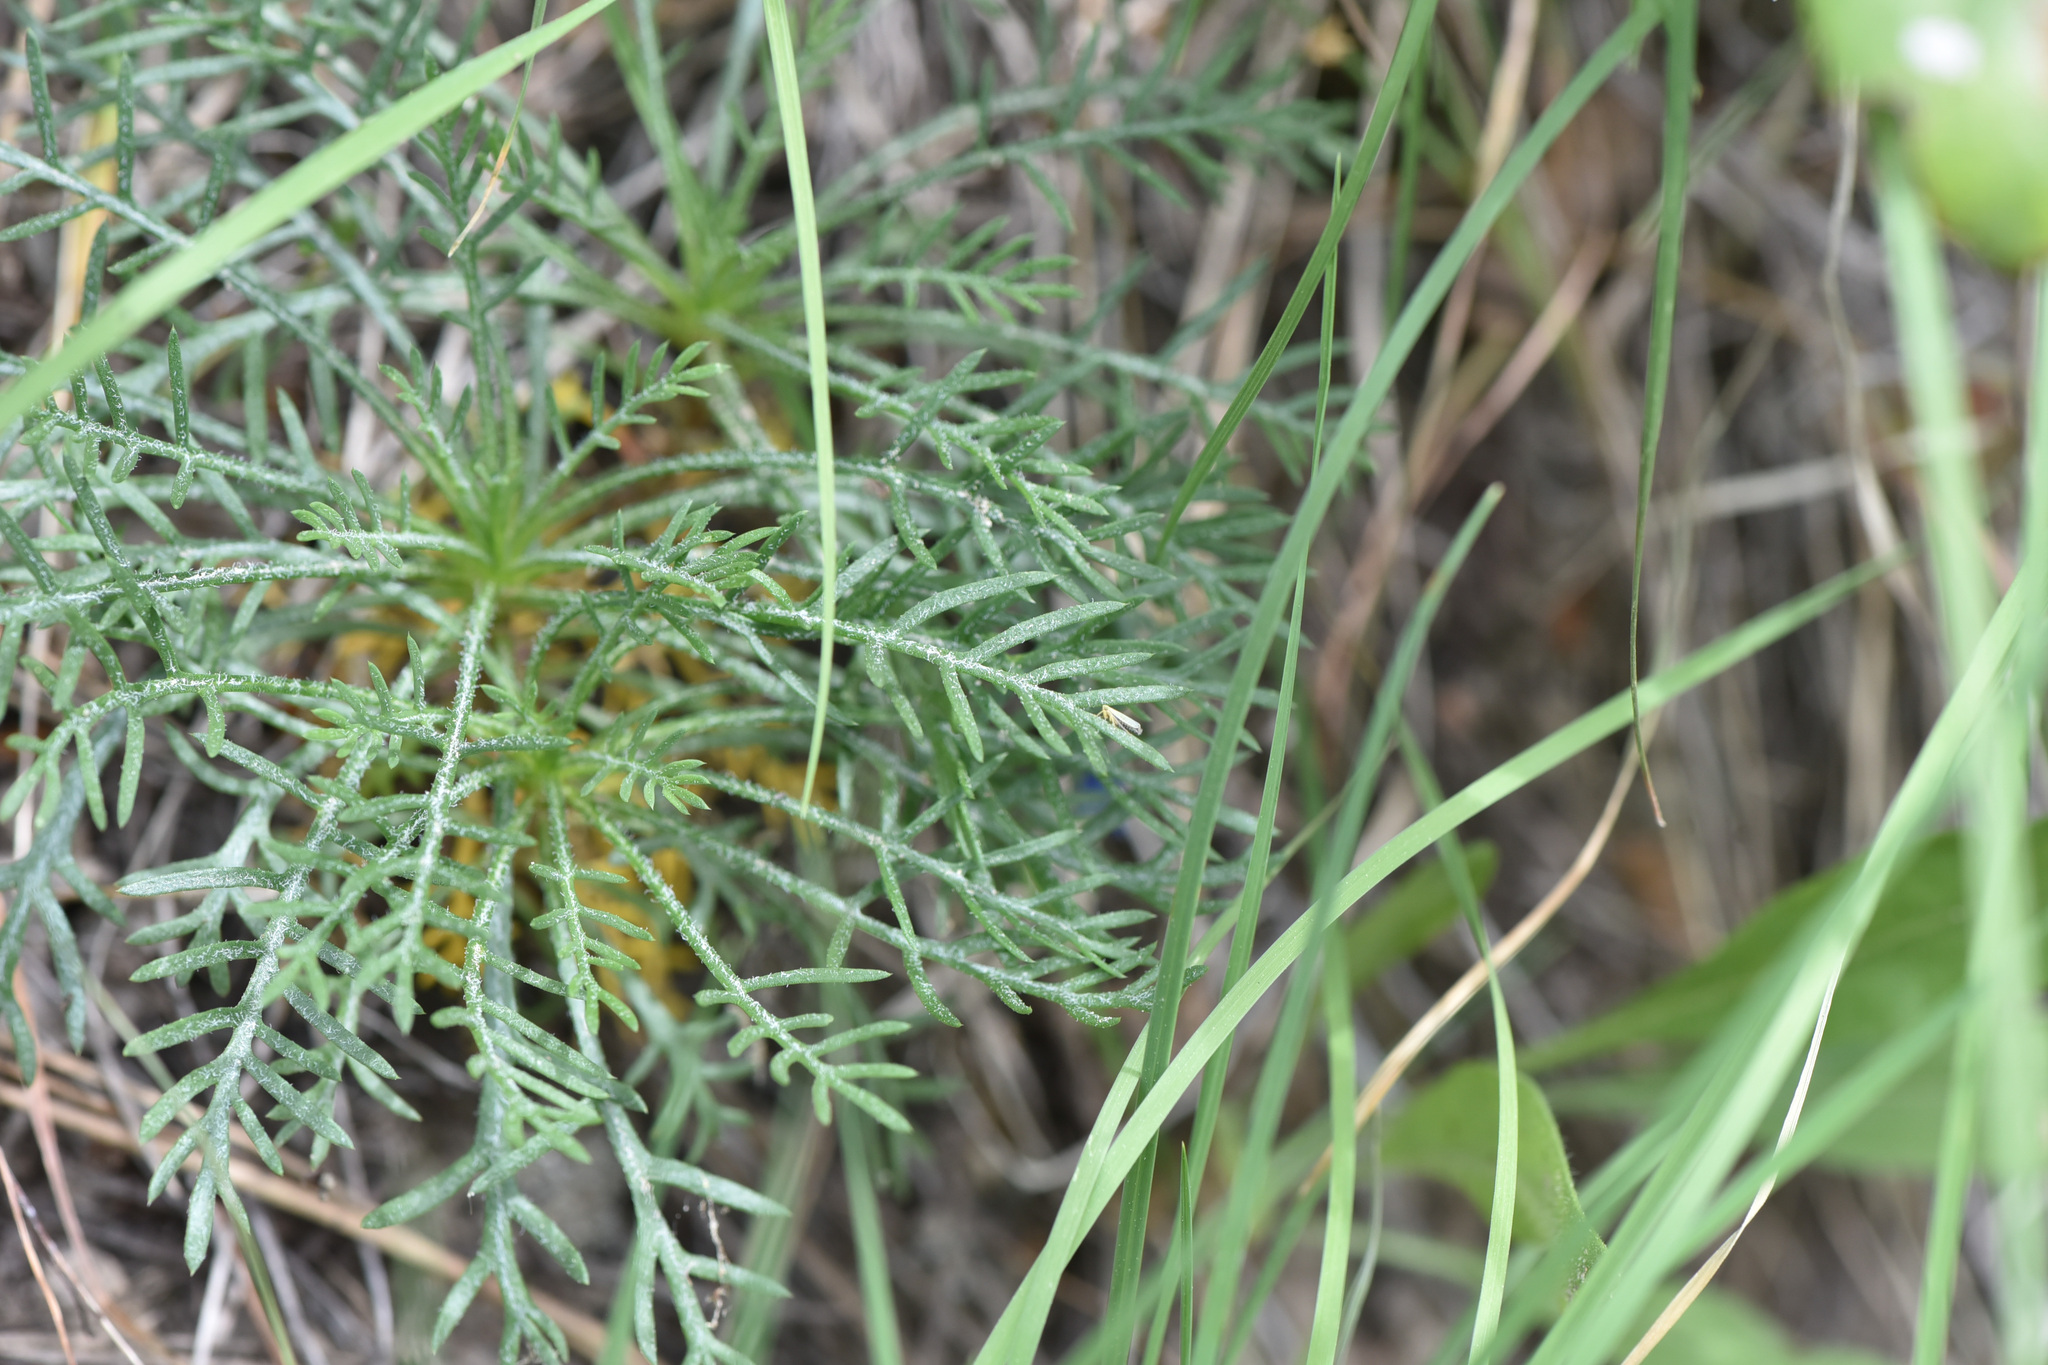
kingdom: Plantae
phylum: Tracheophyta
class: Magnoliopsida
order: Ericales
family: Polemoniaceae
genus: Ipomopsis
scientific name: Ipomopsis aggregata
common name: Scarlet gilia
